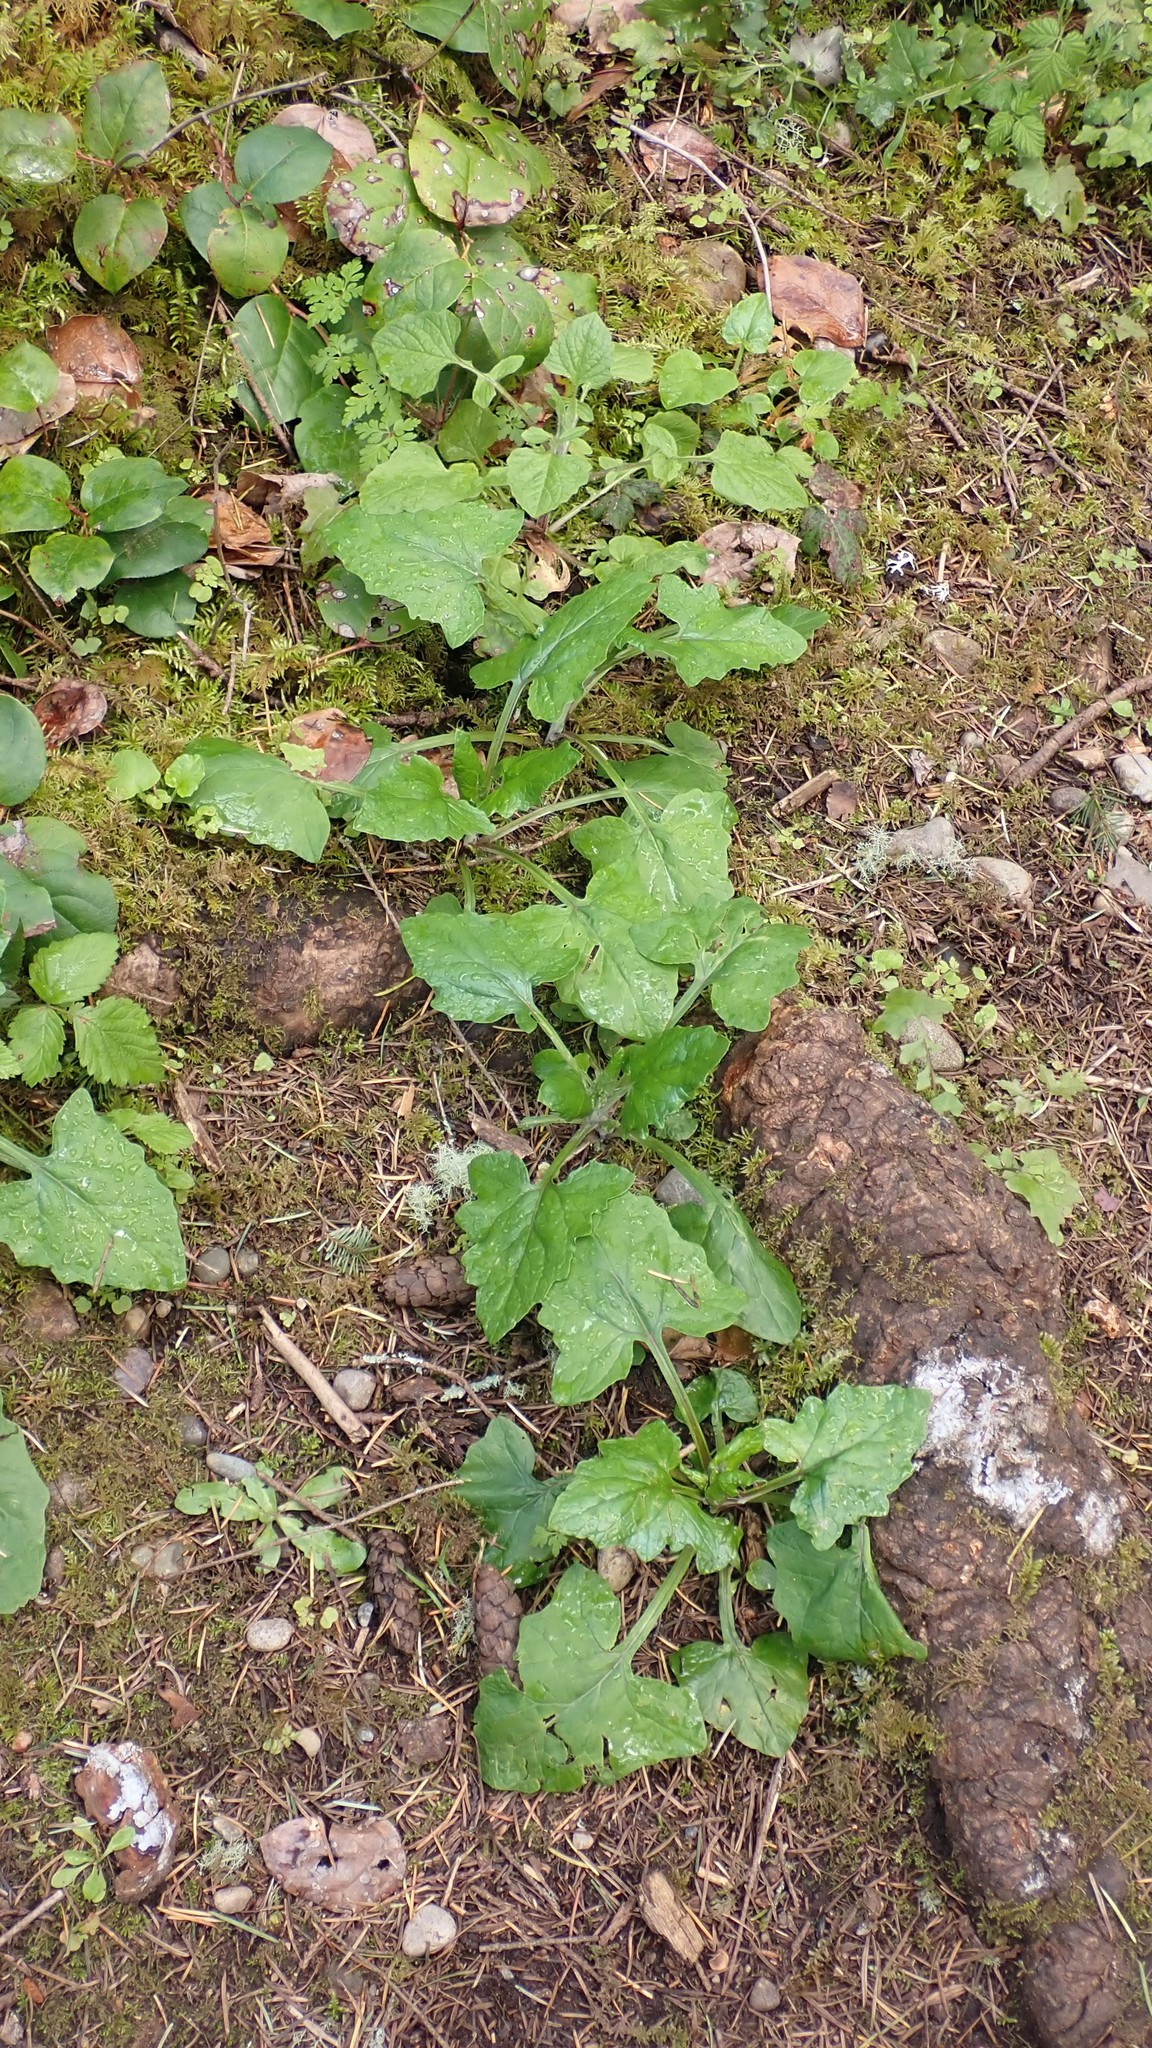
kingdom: Plantae
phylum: Tracheophyta
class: Magnoliopsida
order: Asterales
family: Asteraceae
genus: Adenocaulon
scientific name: Adenocaulon bicolor
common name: Trailplant
